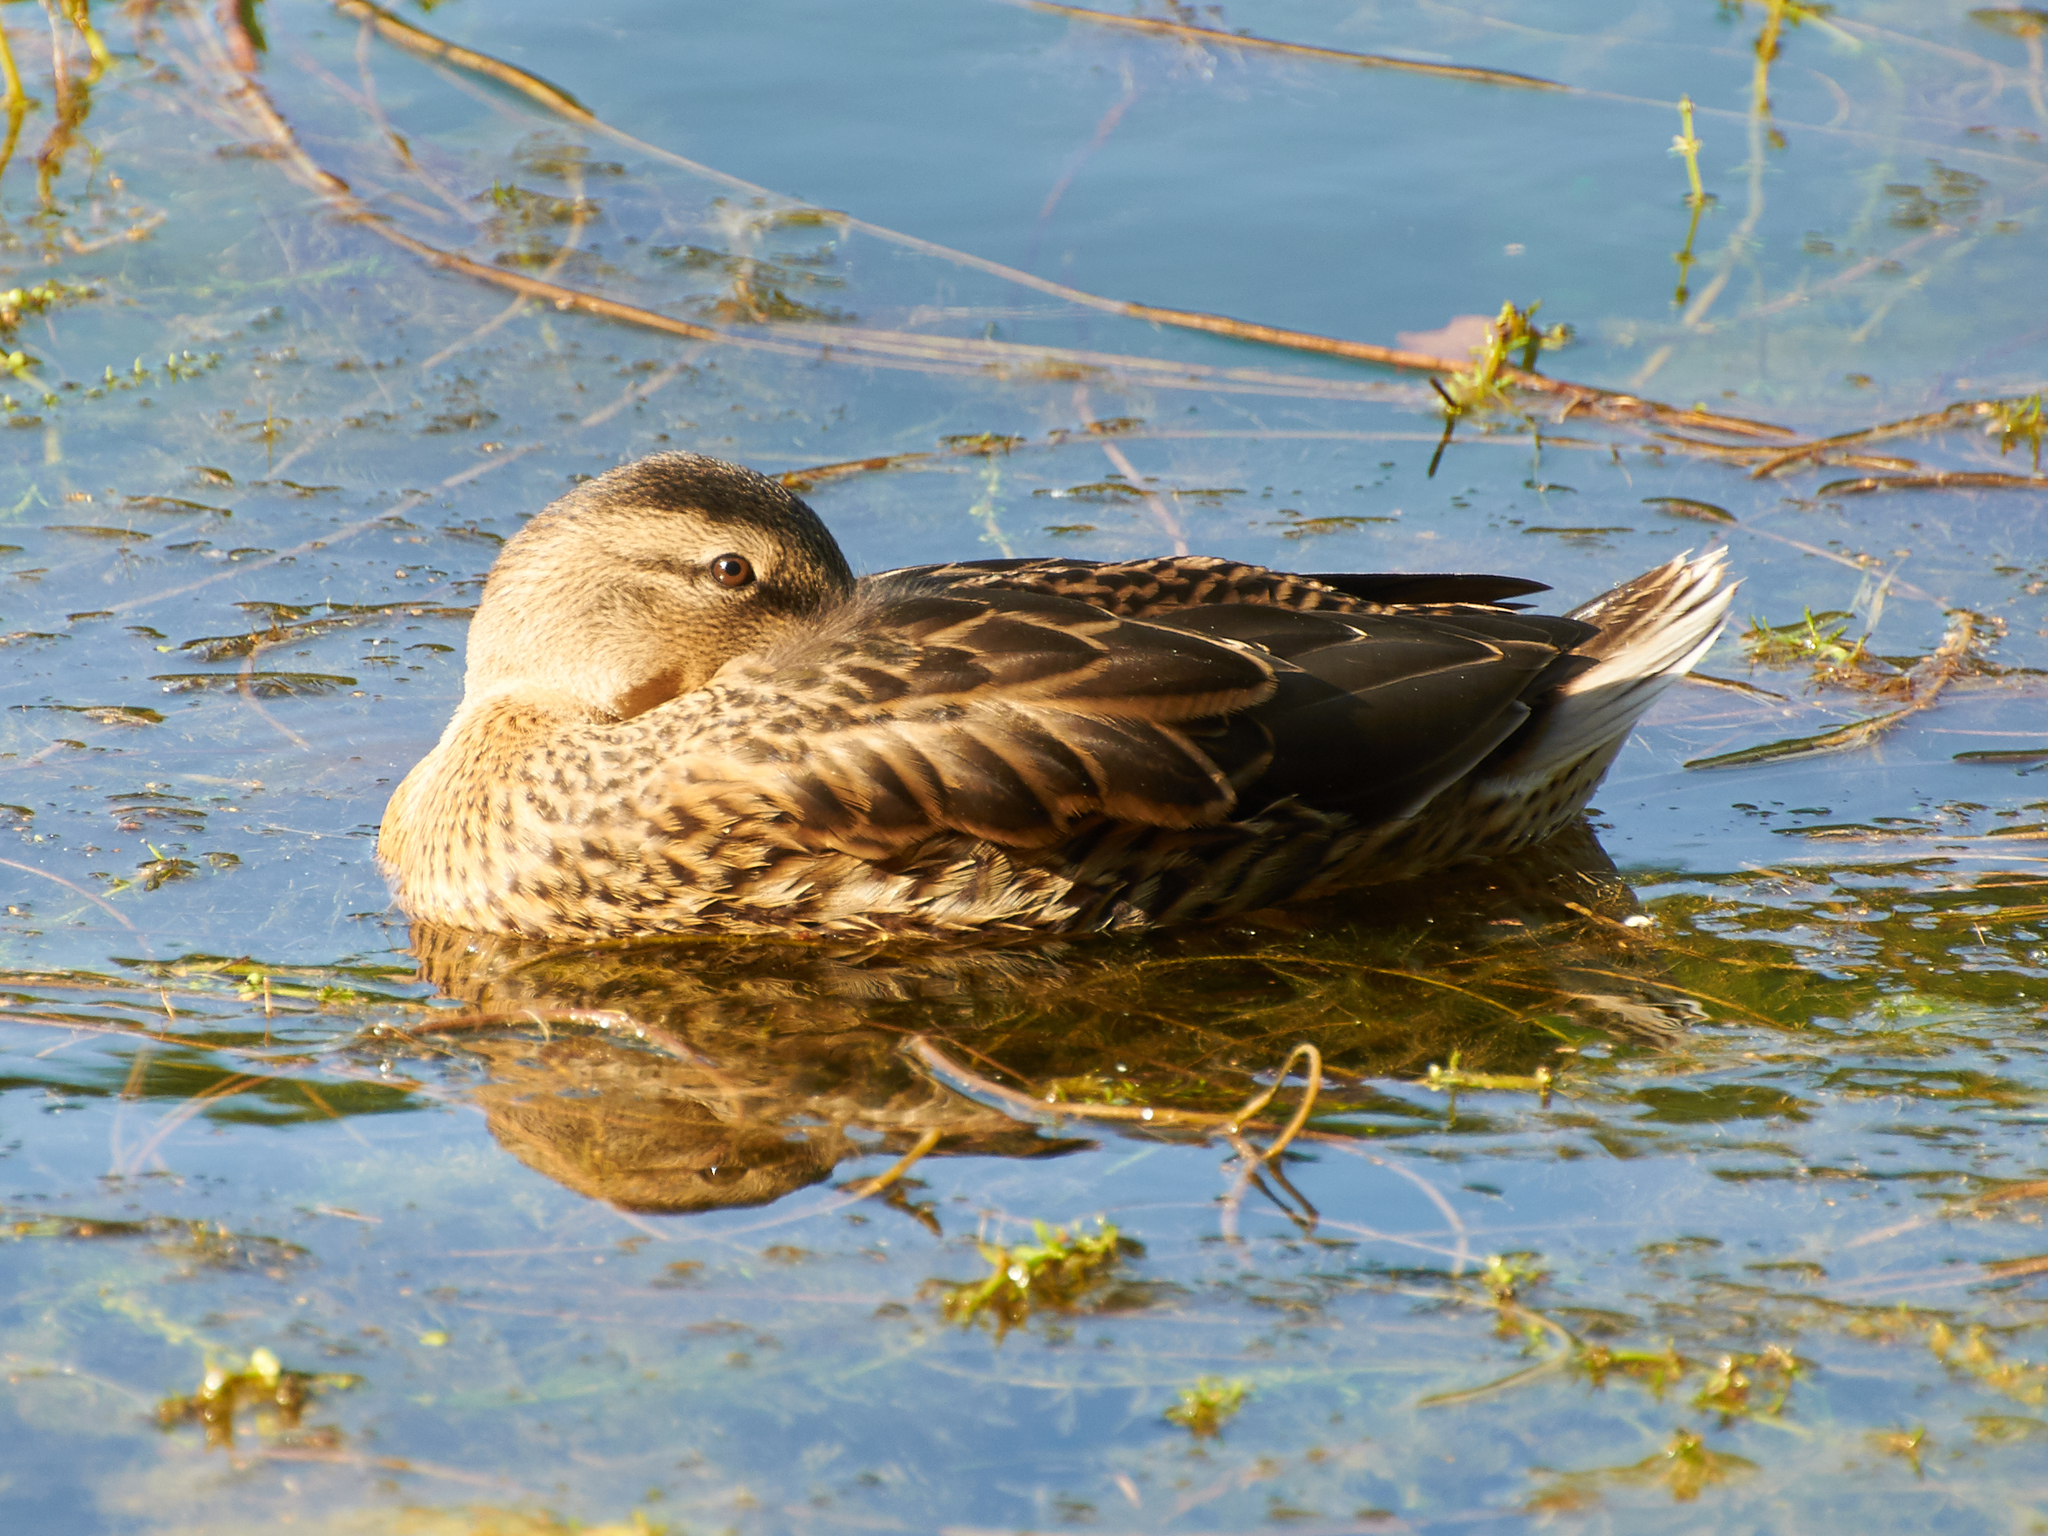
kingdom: Animalia
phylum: Chordata
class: Aves
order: Anseriformes
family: Anatidae
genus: Anas
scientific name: Anas platyrhynchos
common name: Mallard
